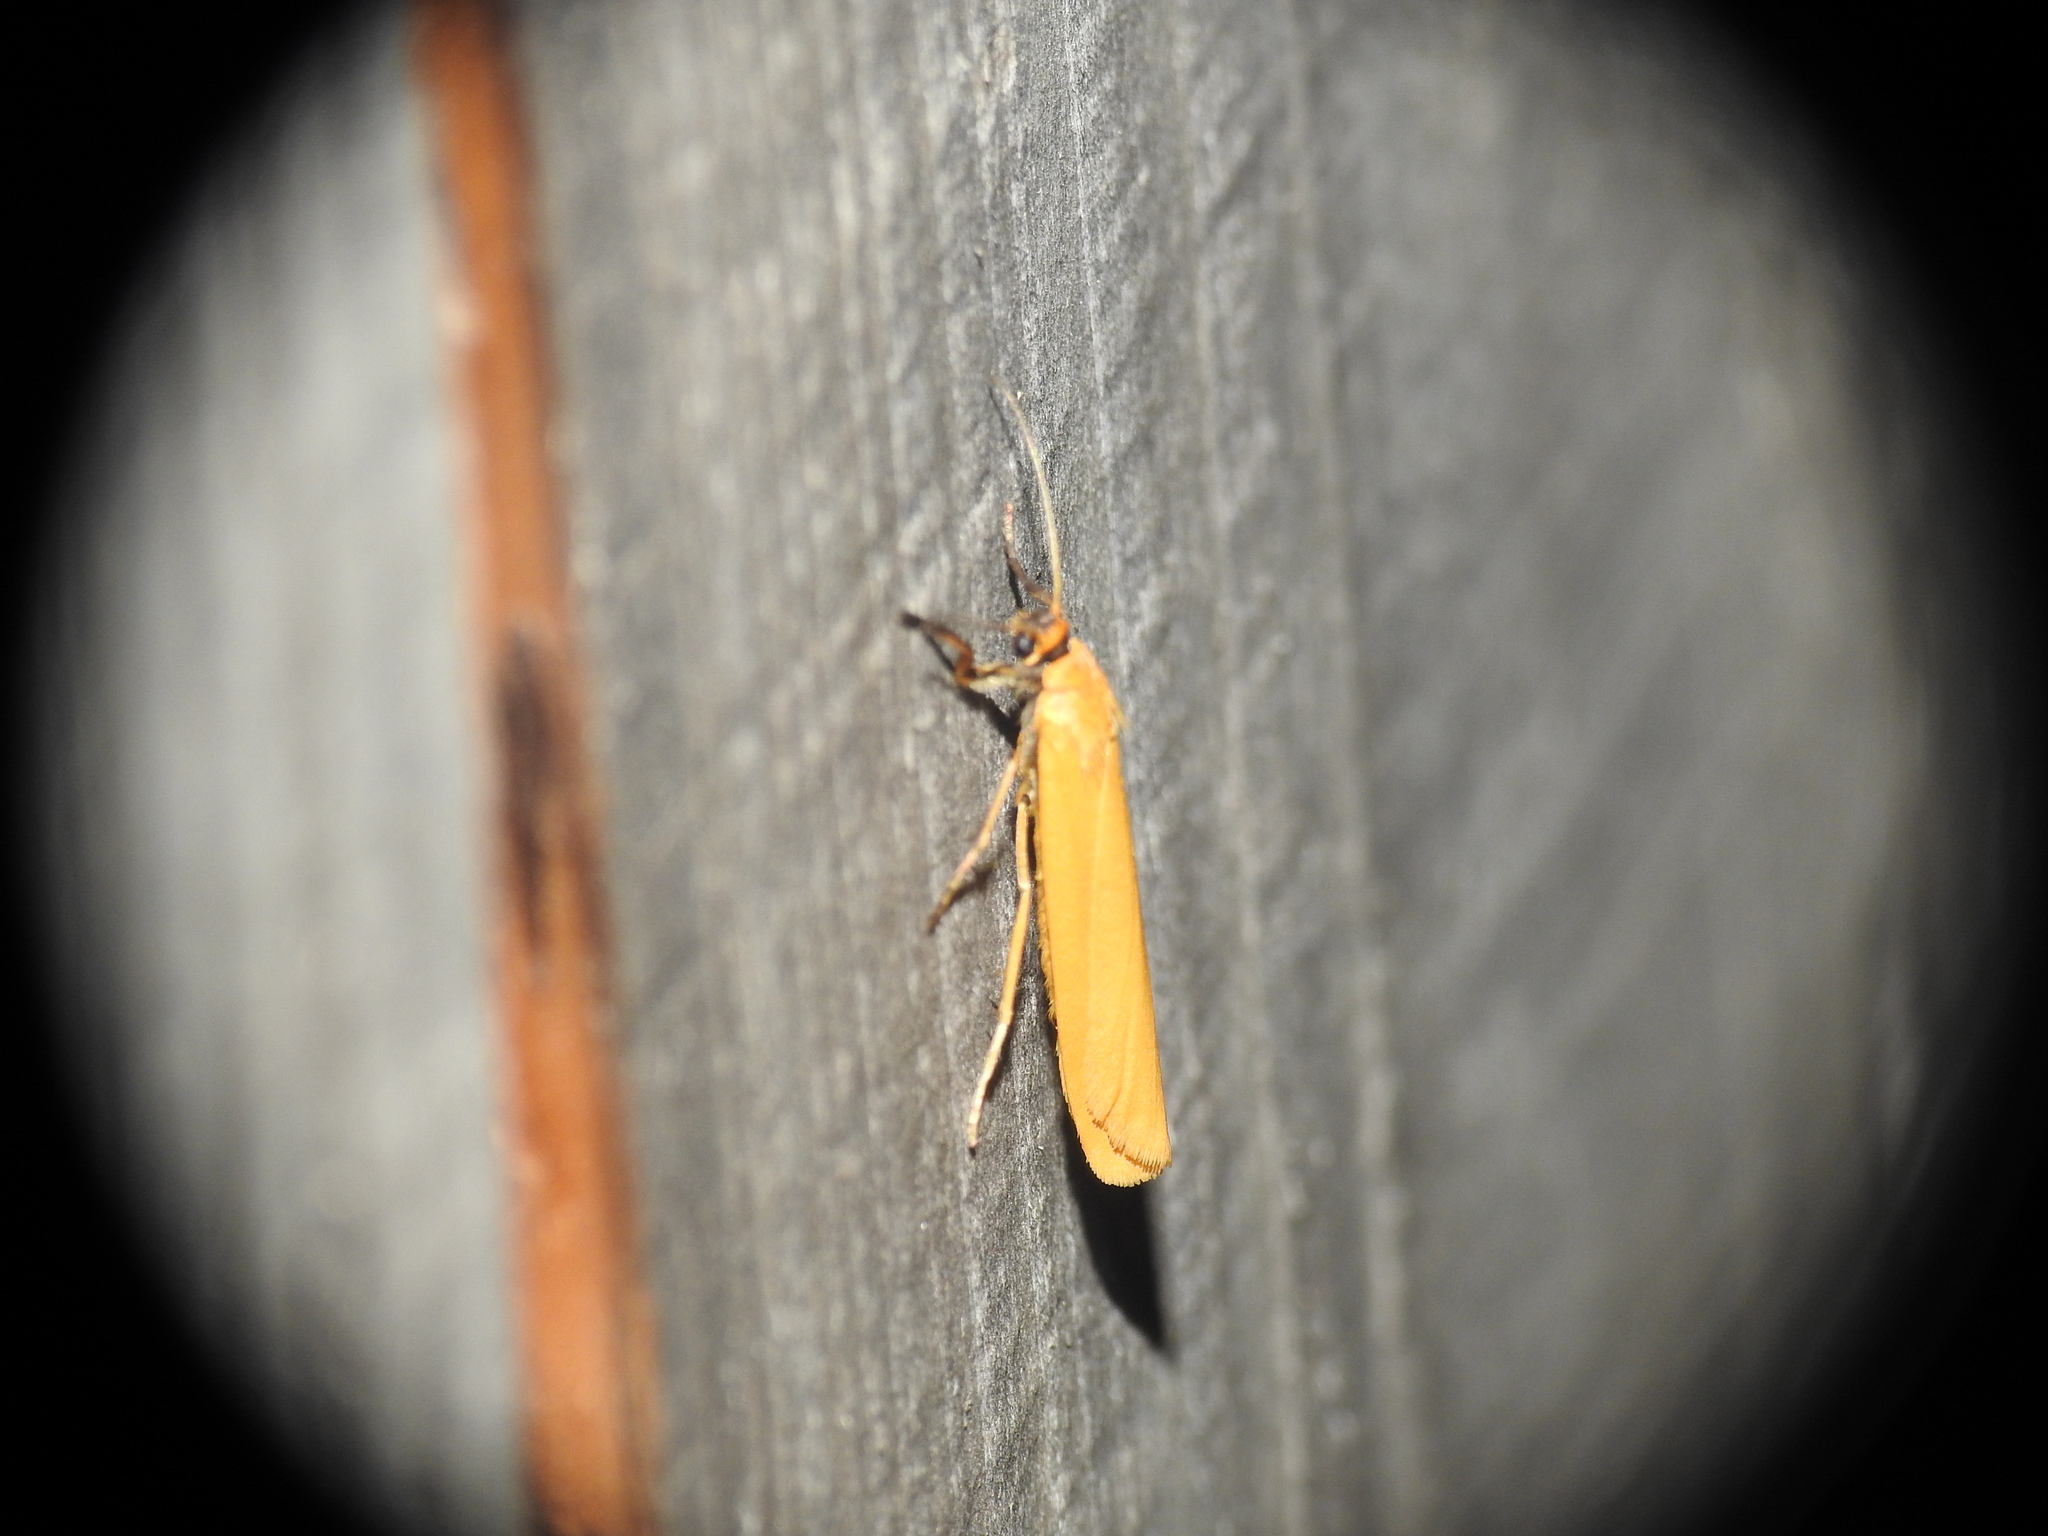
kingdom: Animalia
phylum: Arthropoda
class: Insecta
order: Lepidoptera
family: Erebidae
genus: Indalia
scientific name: Indalia lutarella
